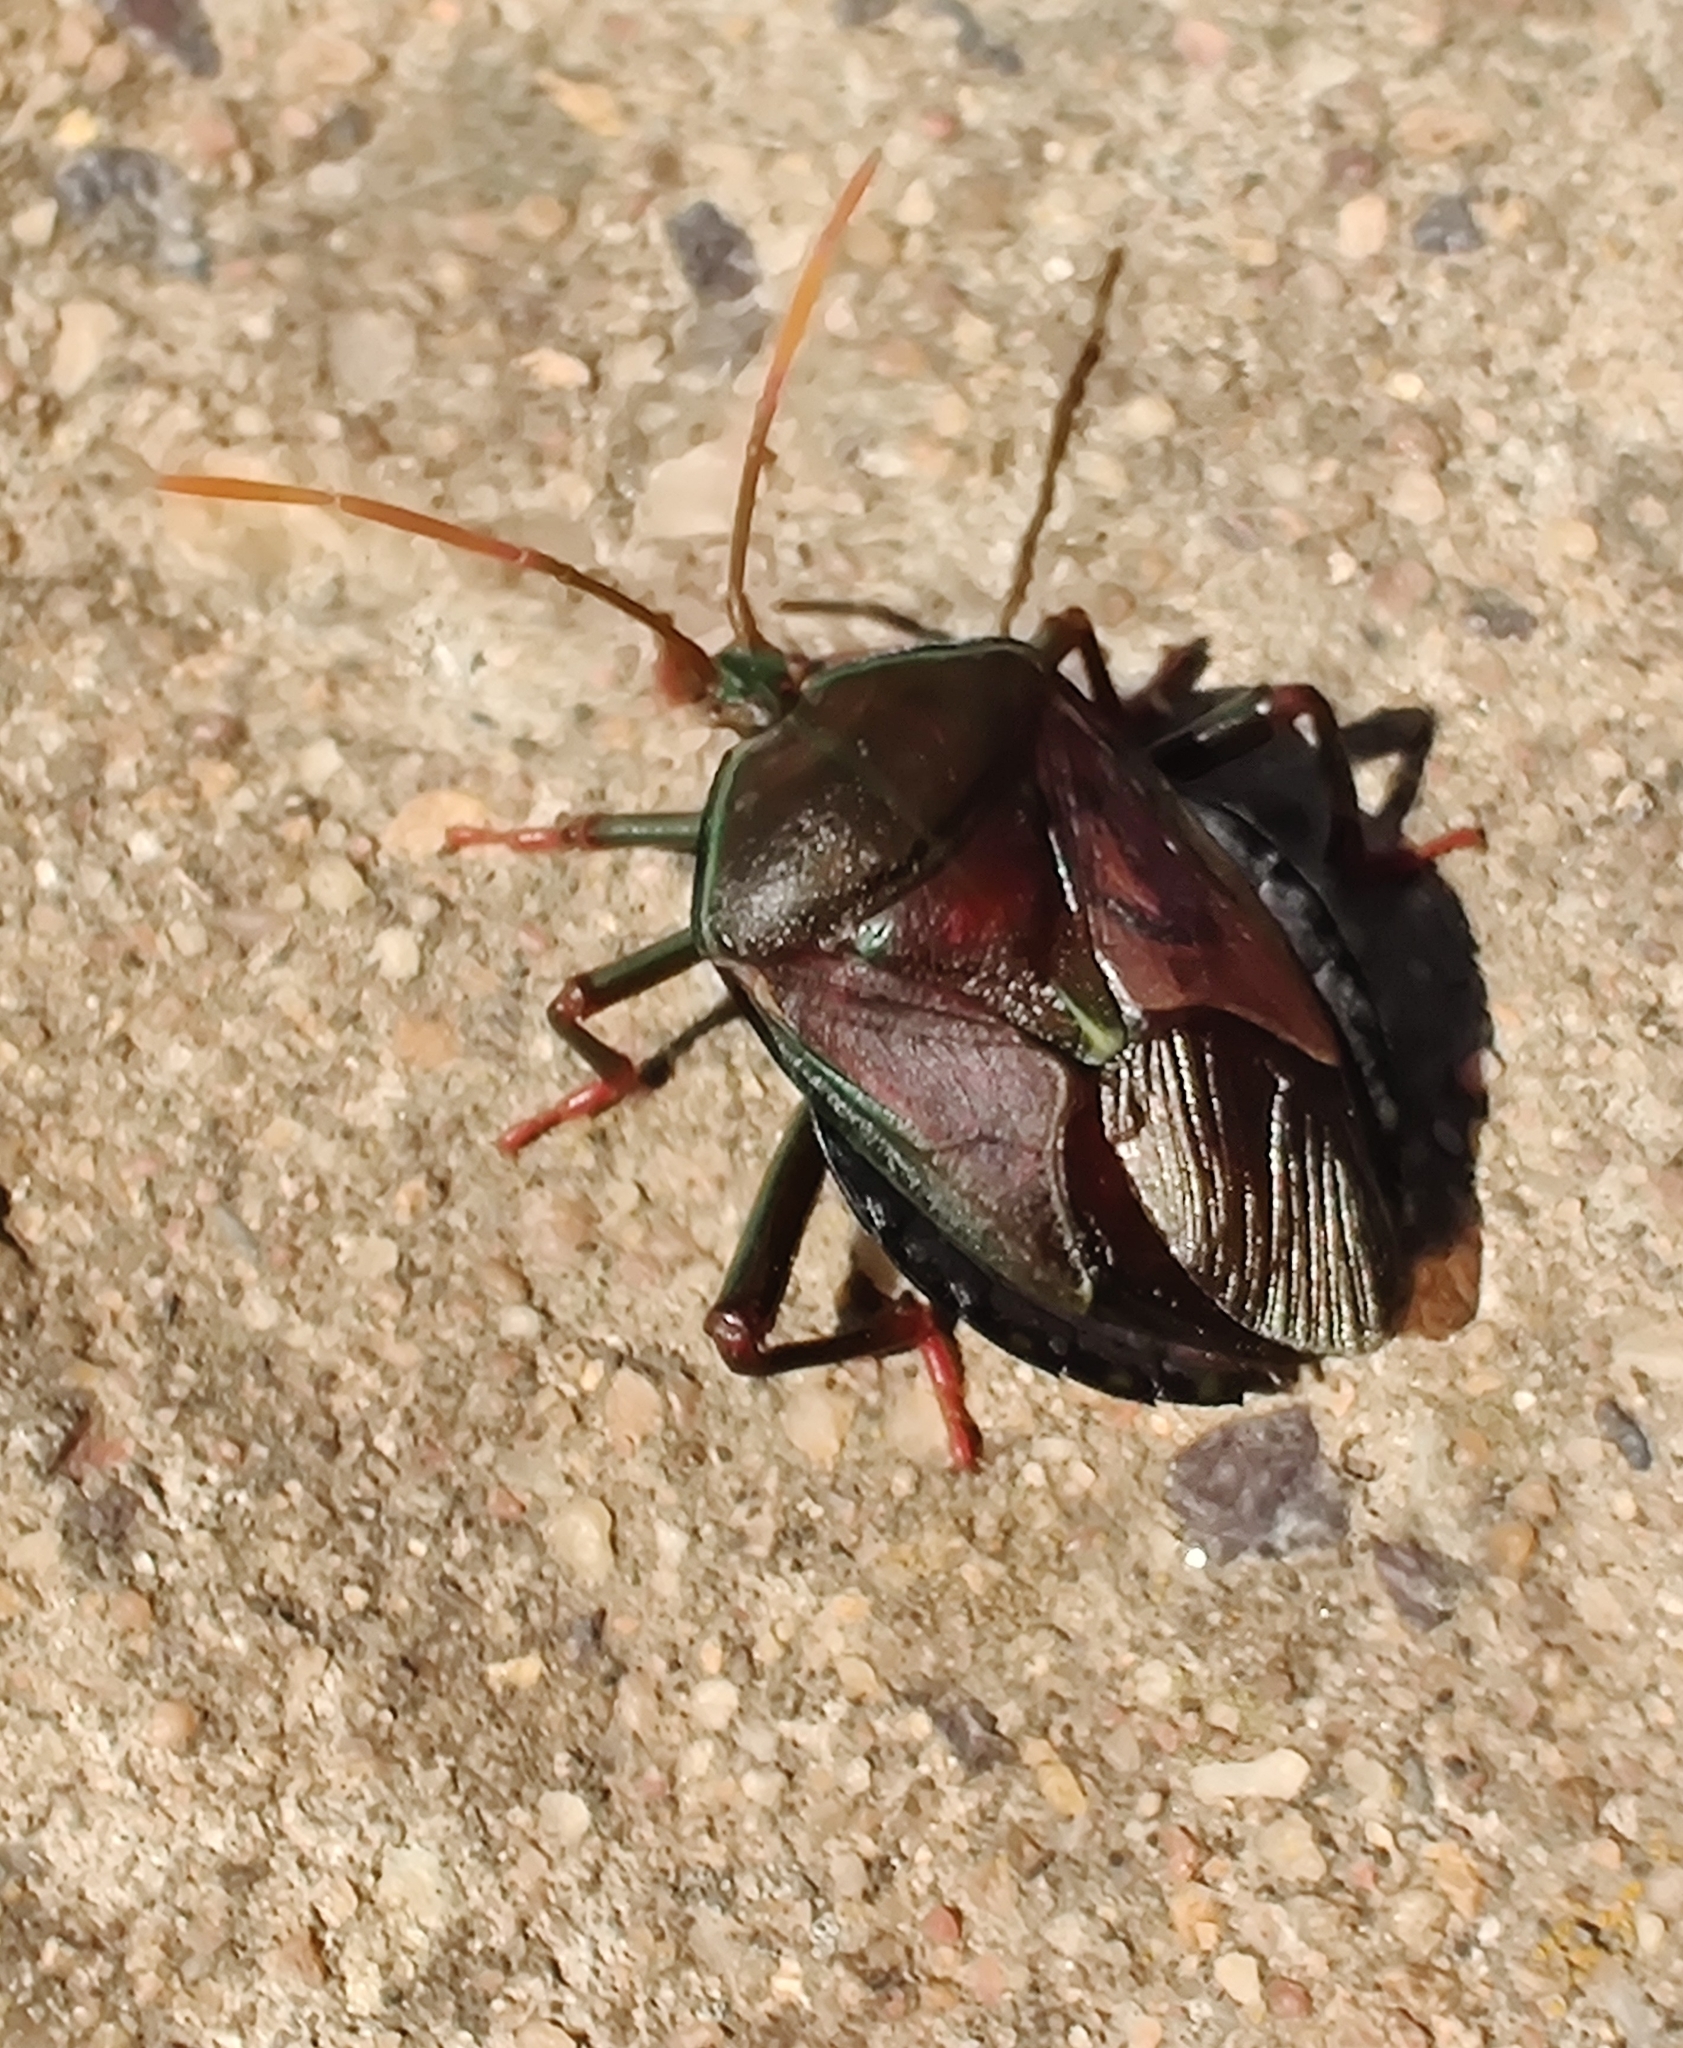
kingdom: Animalia
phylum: Arthropoda
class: Insecta
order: Hemiptera
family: Tessaratomidae
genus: Musgraveia
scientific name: Musgraveia sulciventris
